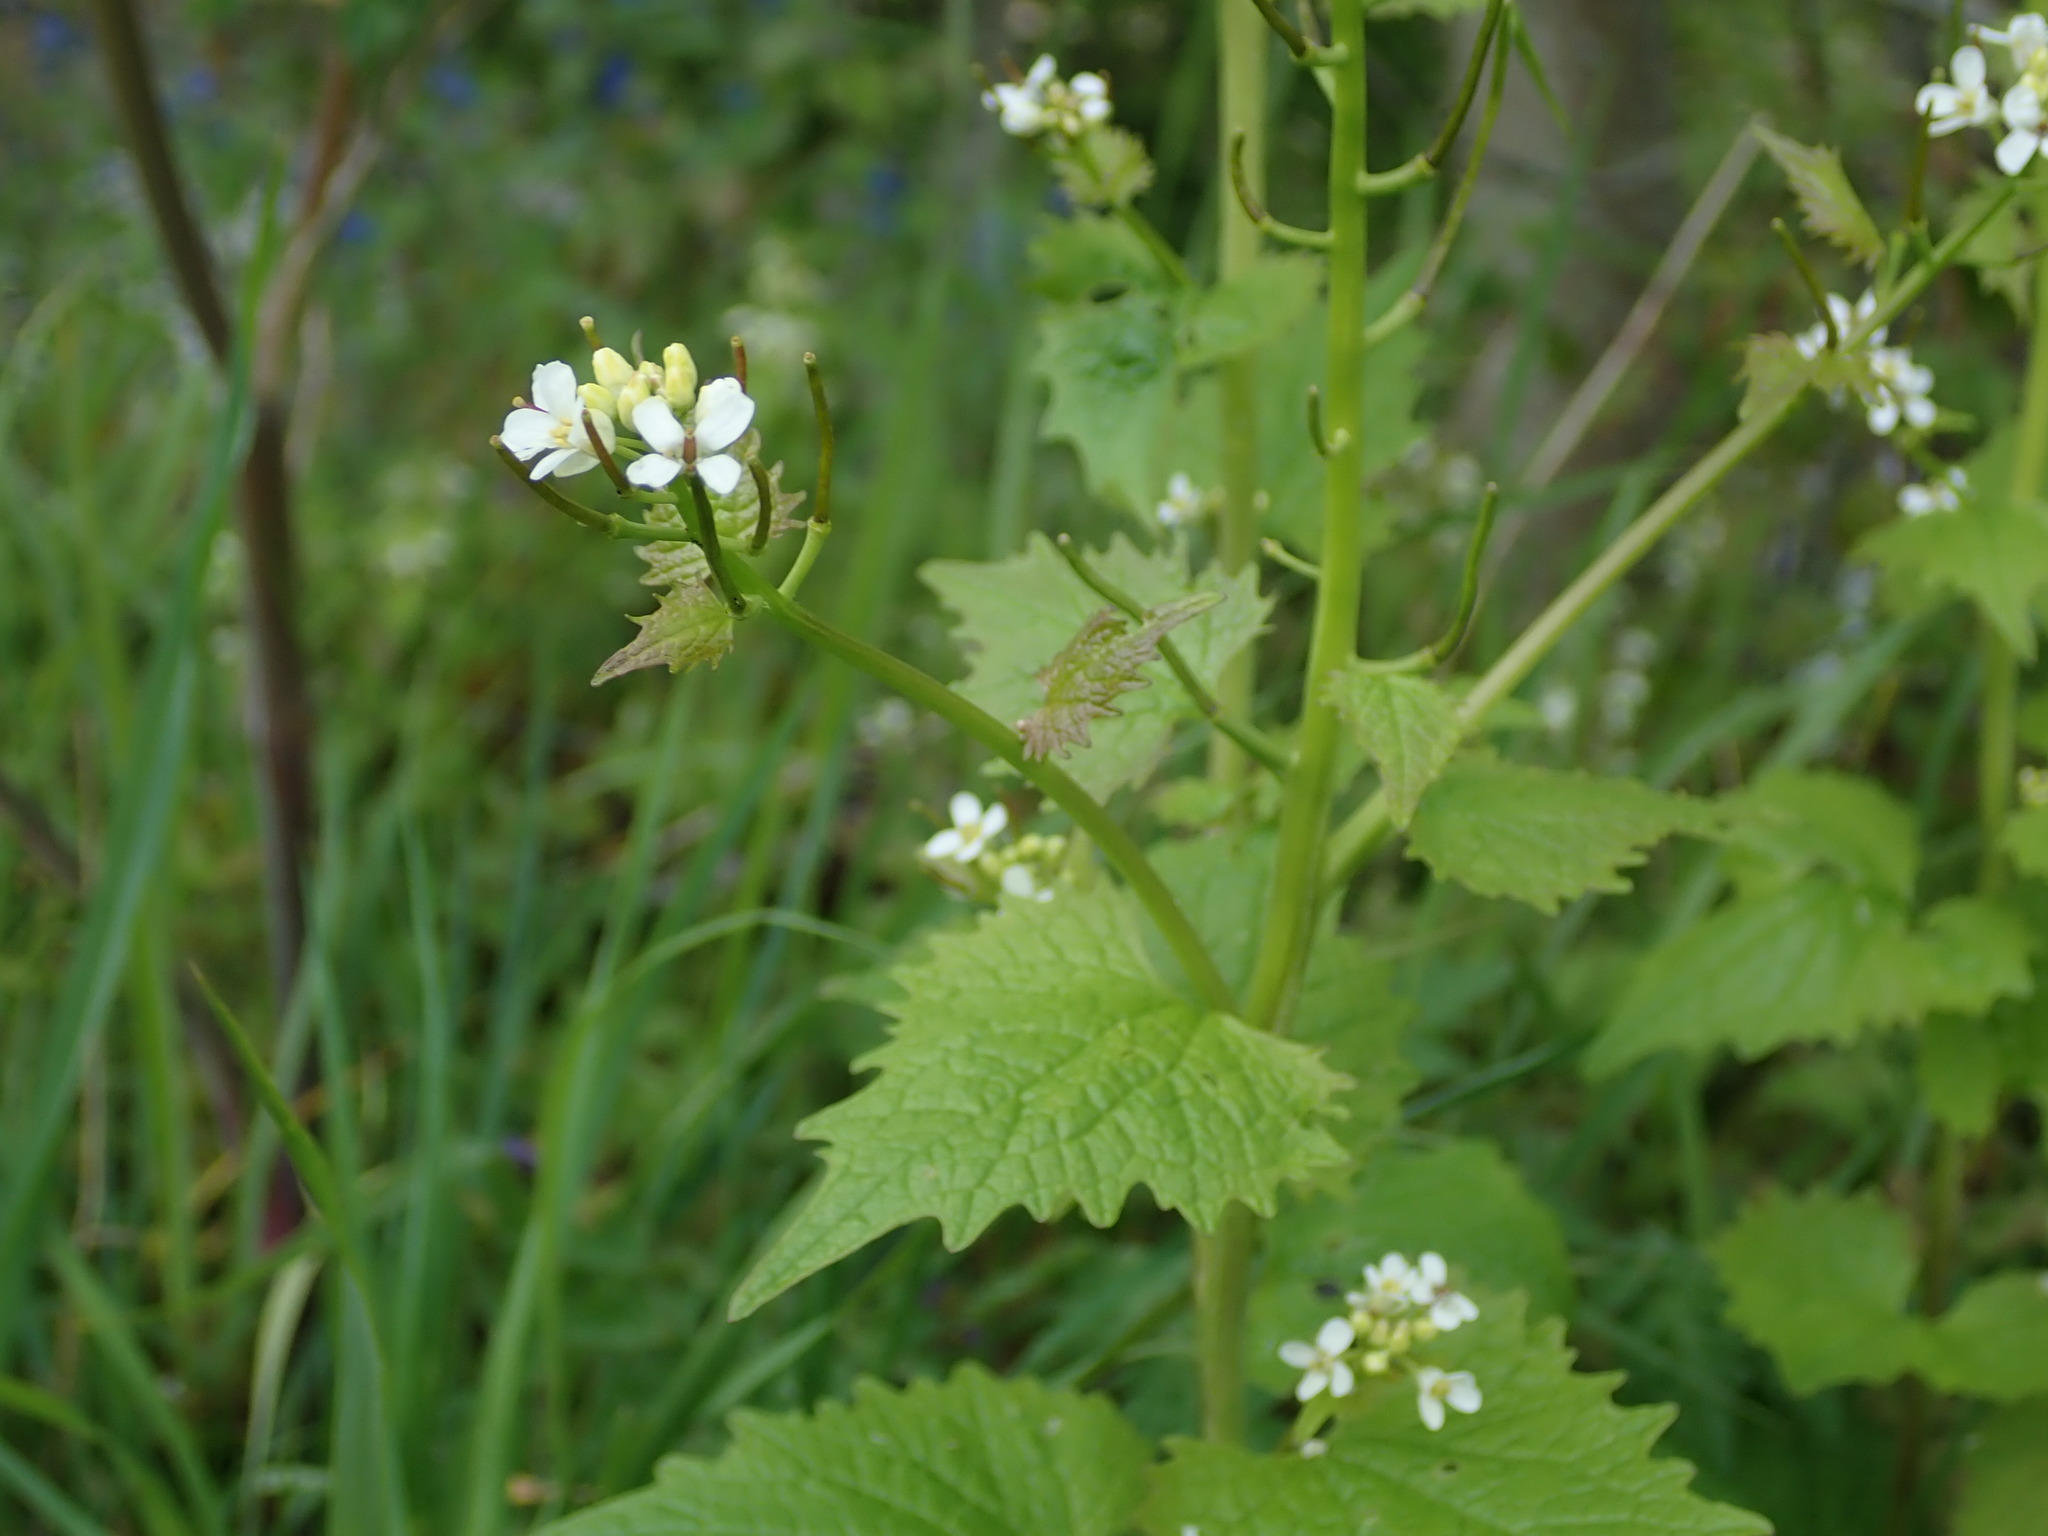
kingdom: Plantae
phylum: Tracheophyta
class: Magnoliopsida
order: Brassicales
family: Brassicaceae
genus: Alliaria
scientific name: Alliaria petiolata
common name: Garlic mustard
